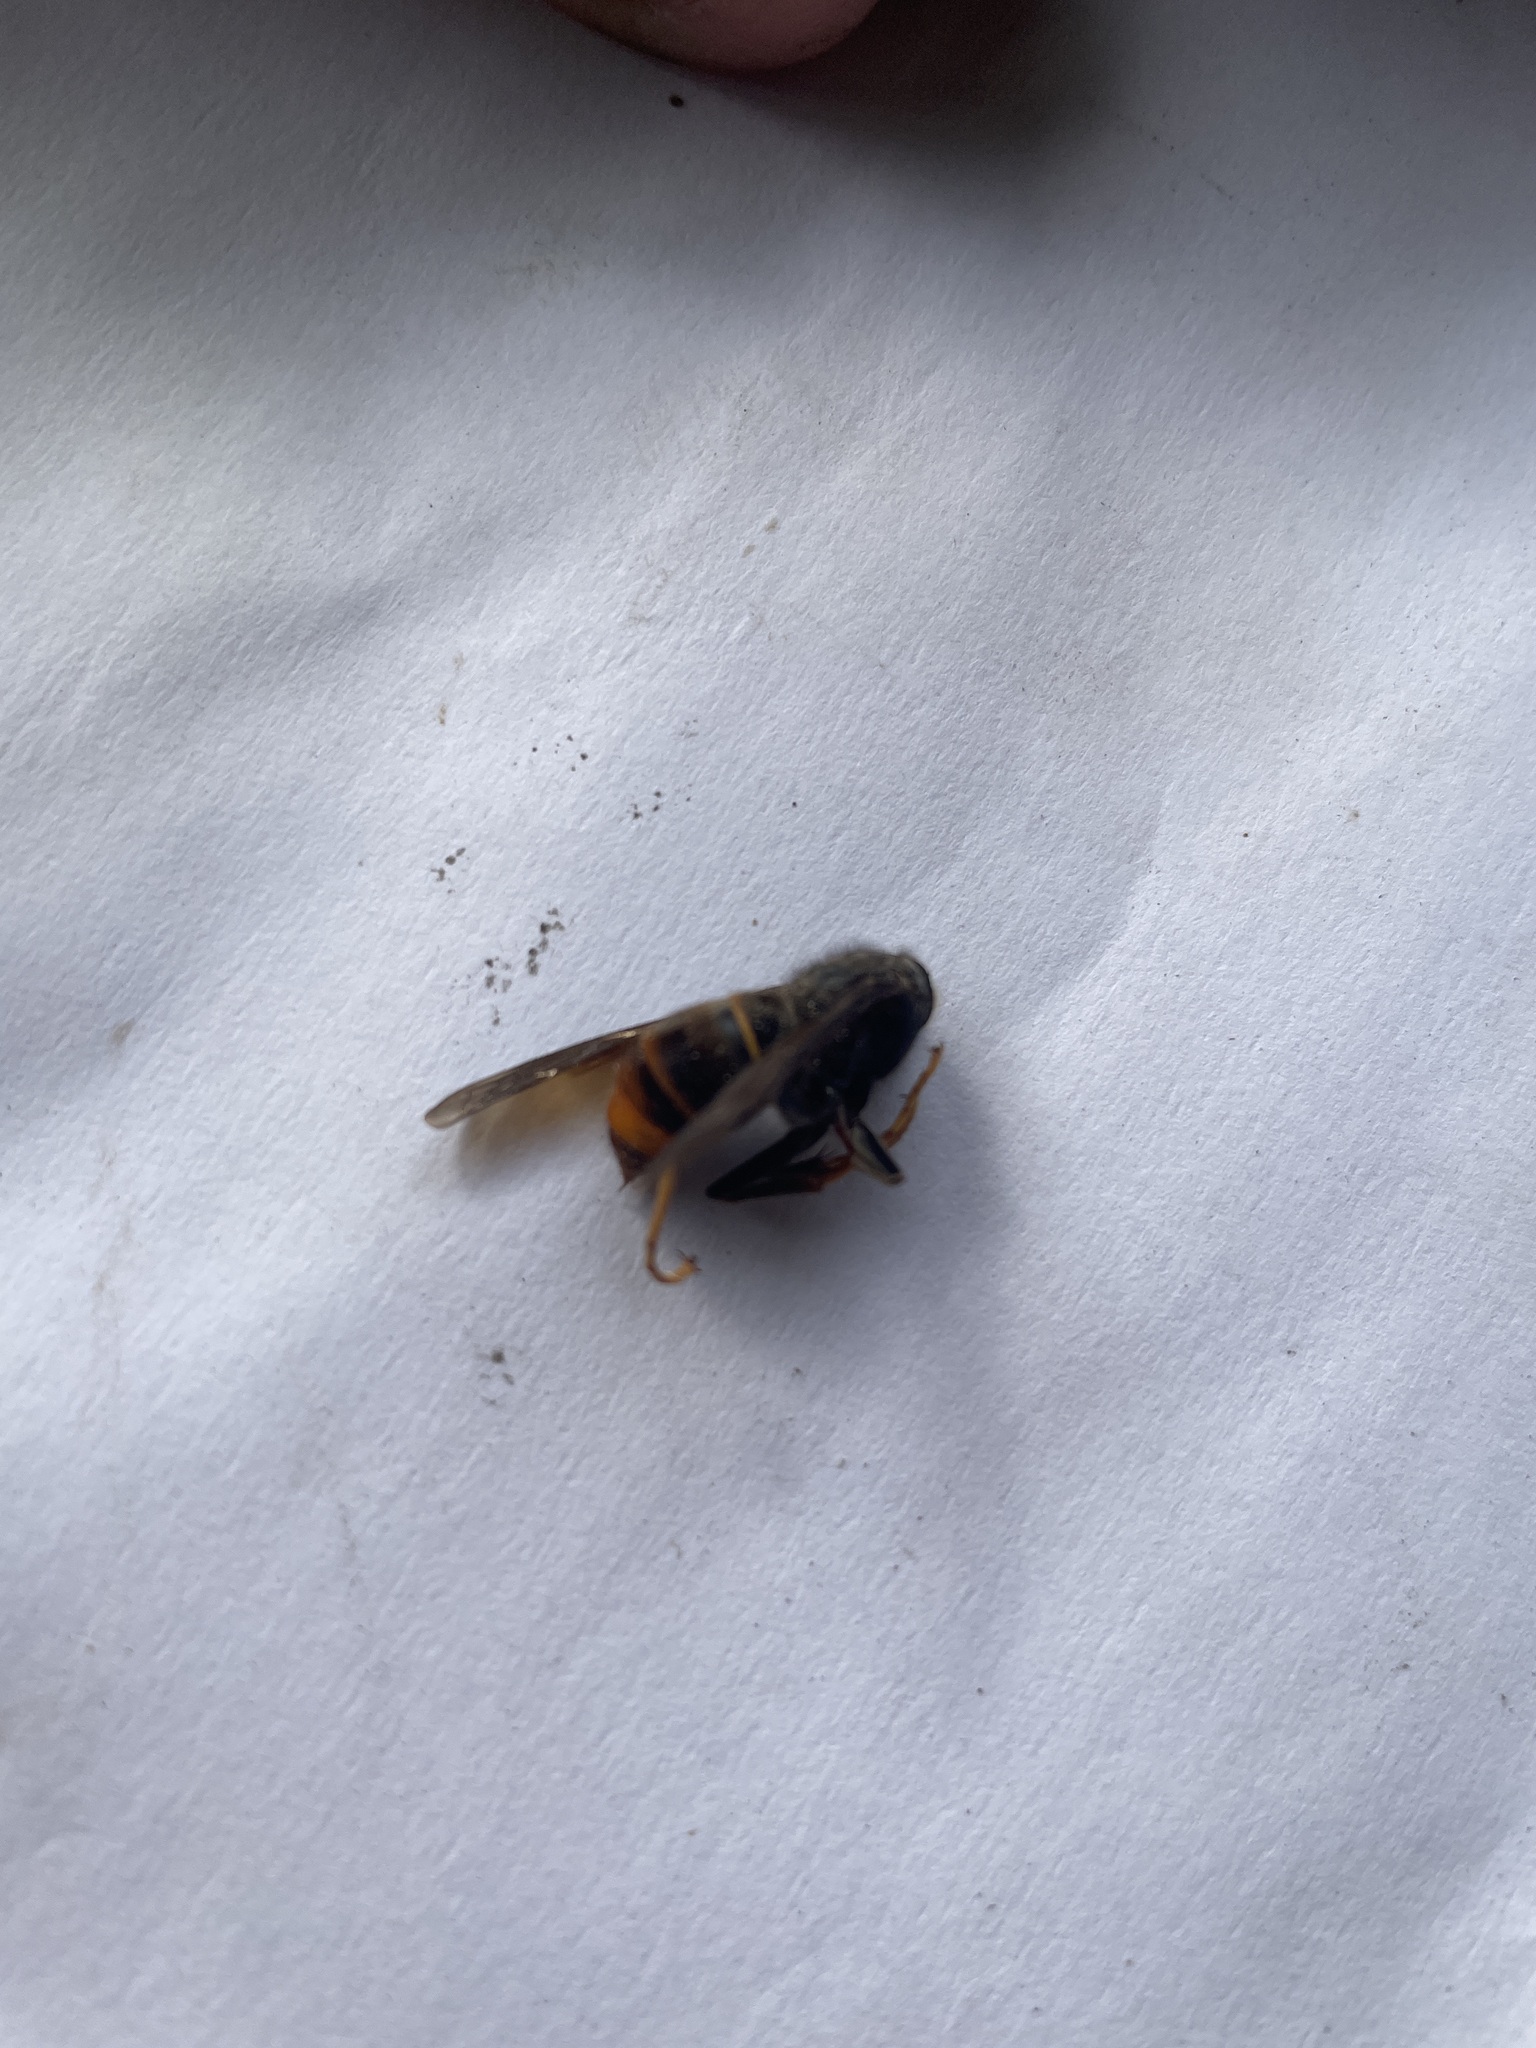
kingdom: Animalia
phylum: Arthropoda
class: Insecta
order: Hymenoptera
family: Vespidae
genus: Vespa
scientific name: Vespa velutina
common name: Asian hornet
